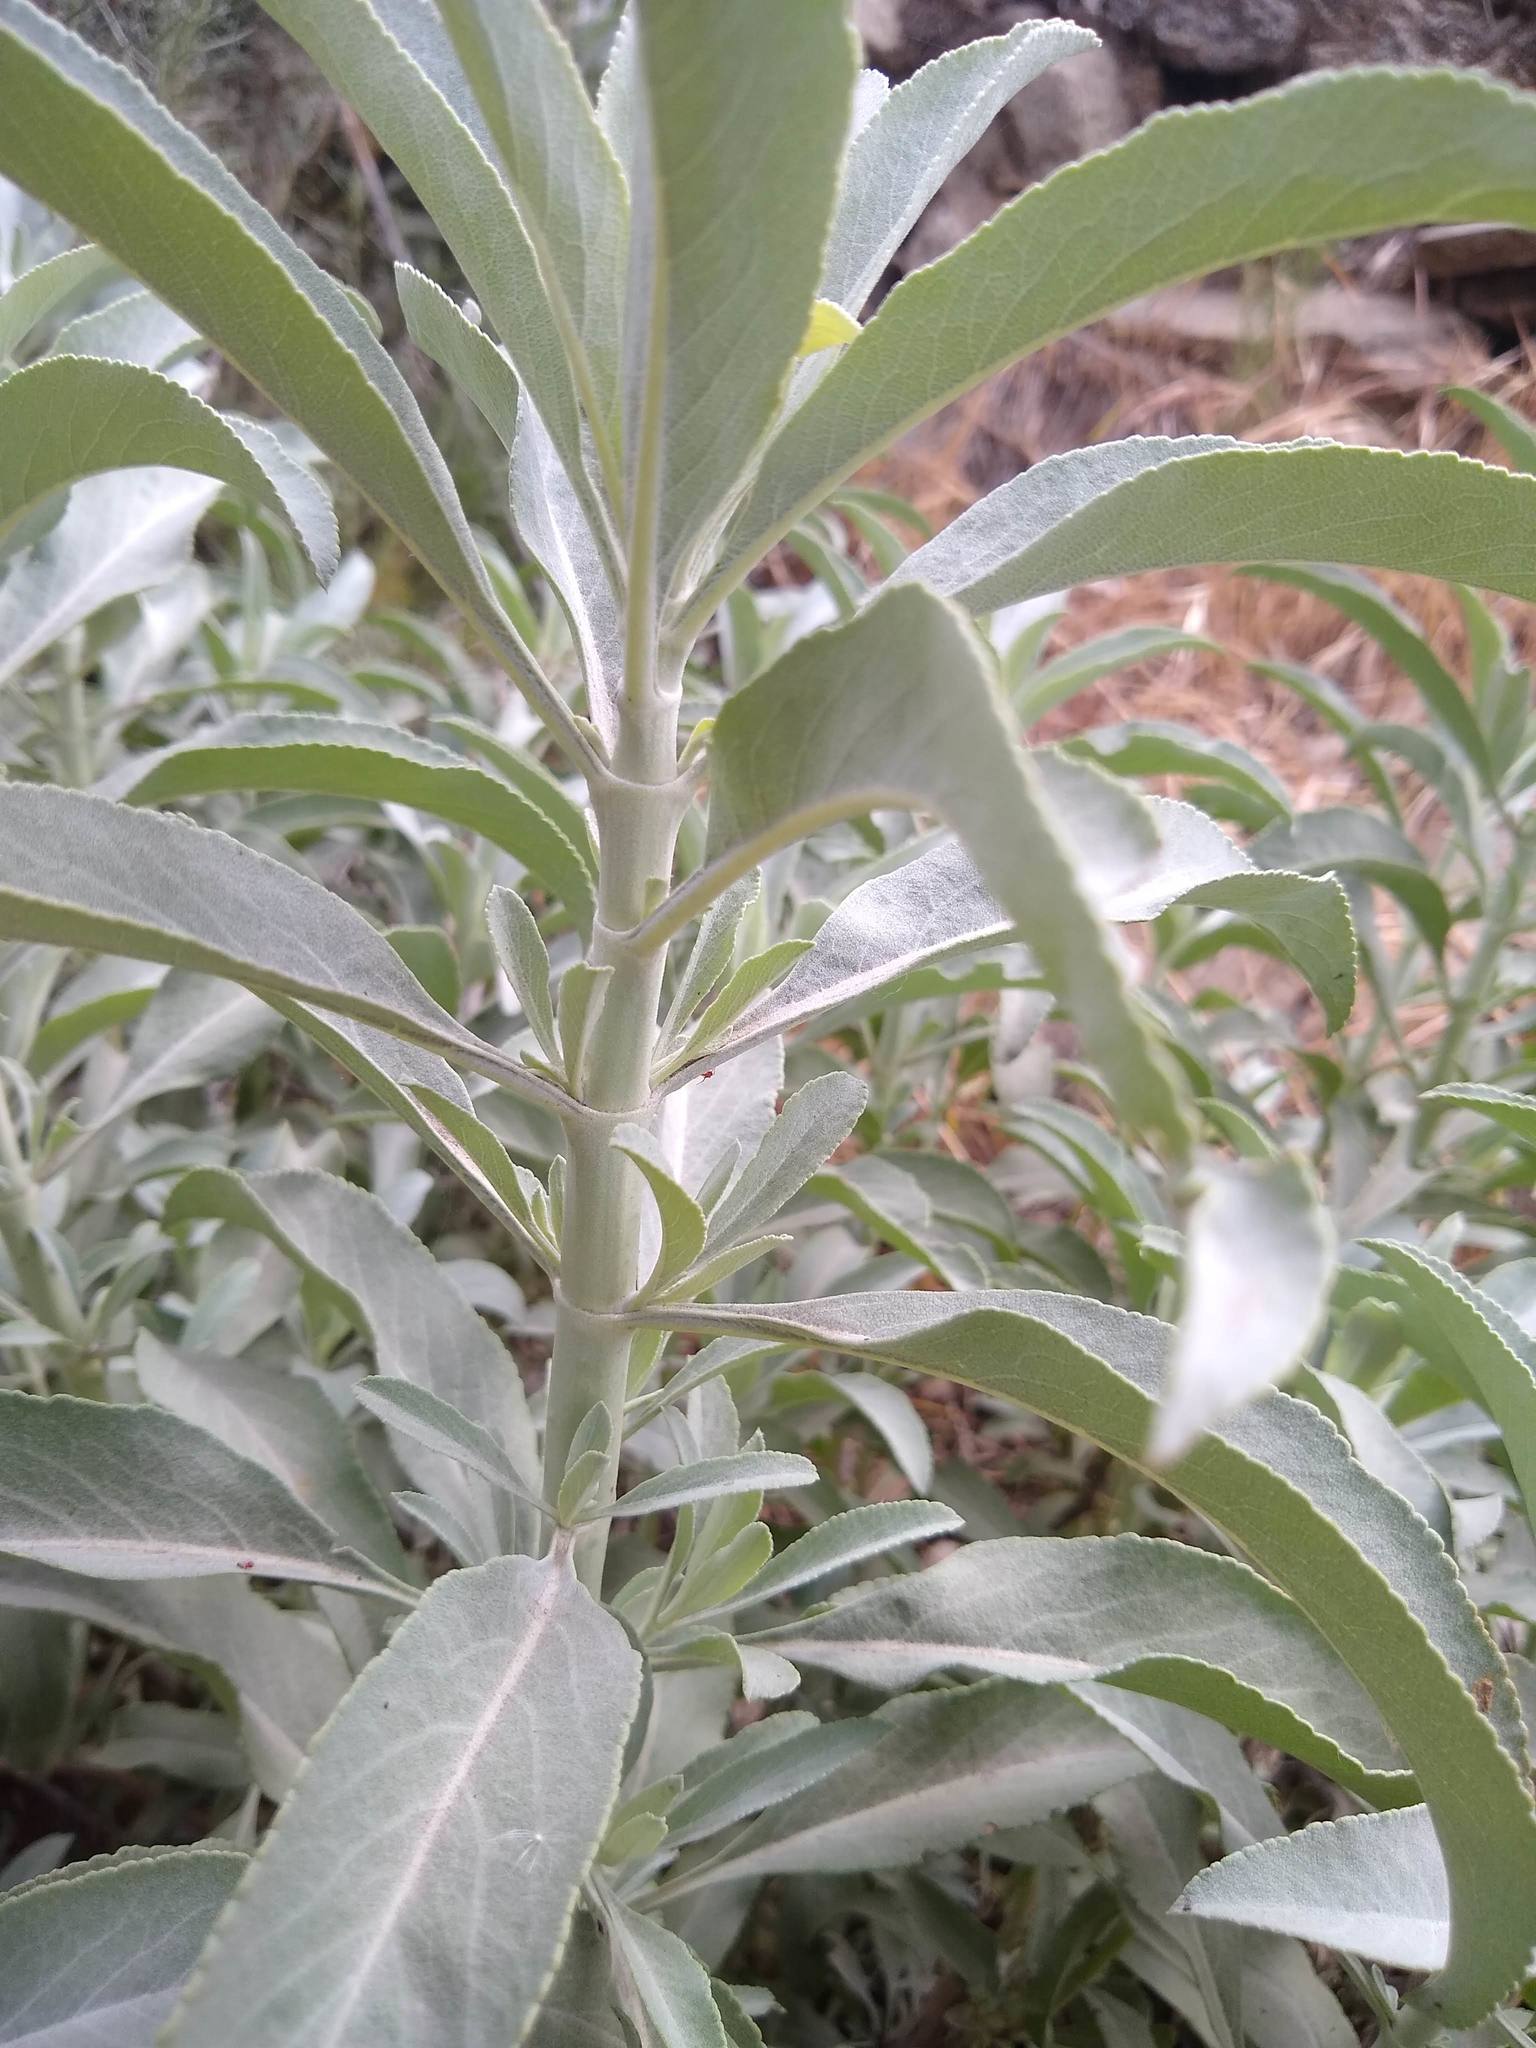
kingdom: Plantae
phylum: Tracheophyta
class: Magnoliopsida
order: Lamiales
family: Lamiaceae
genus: Salvia
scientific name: Salvia apiana
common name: White sage
